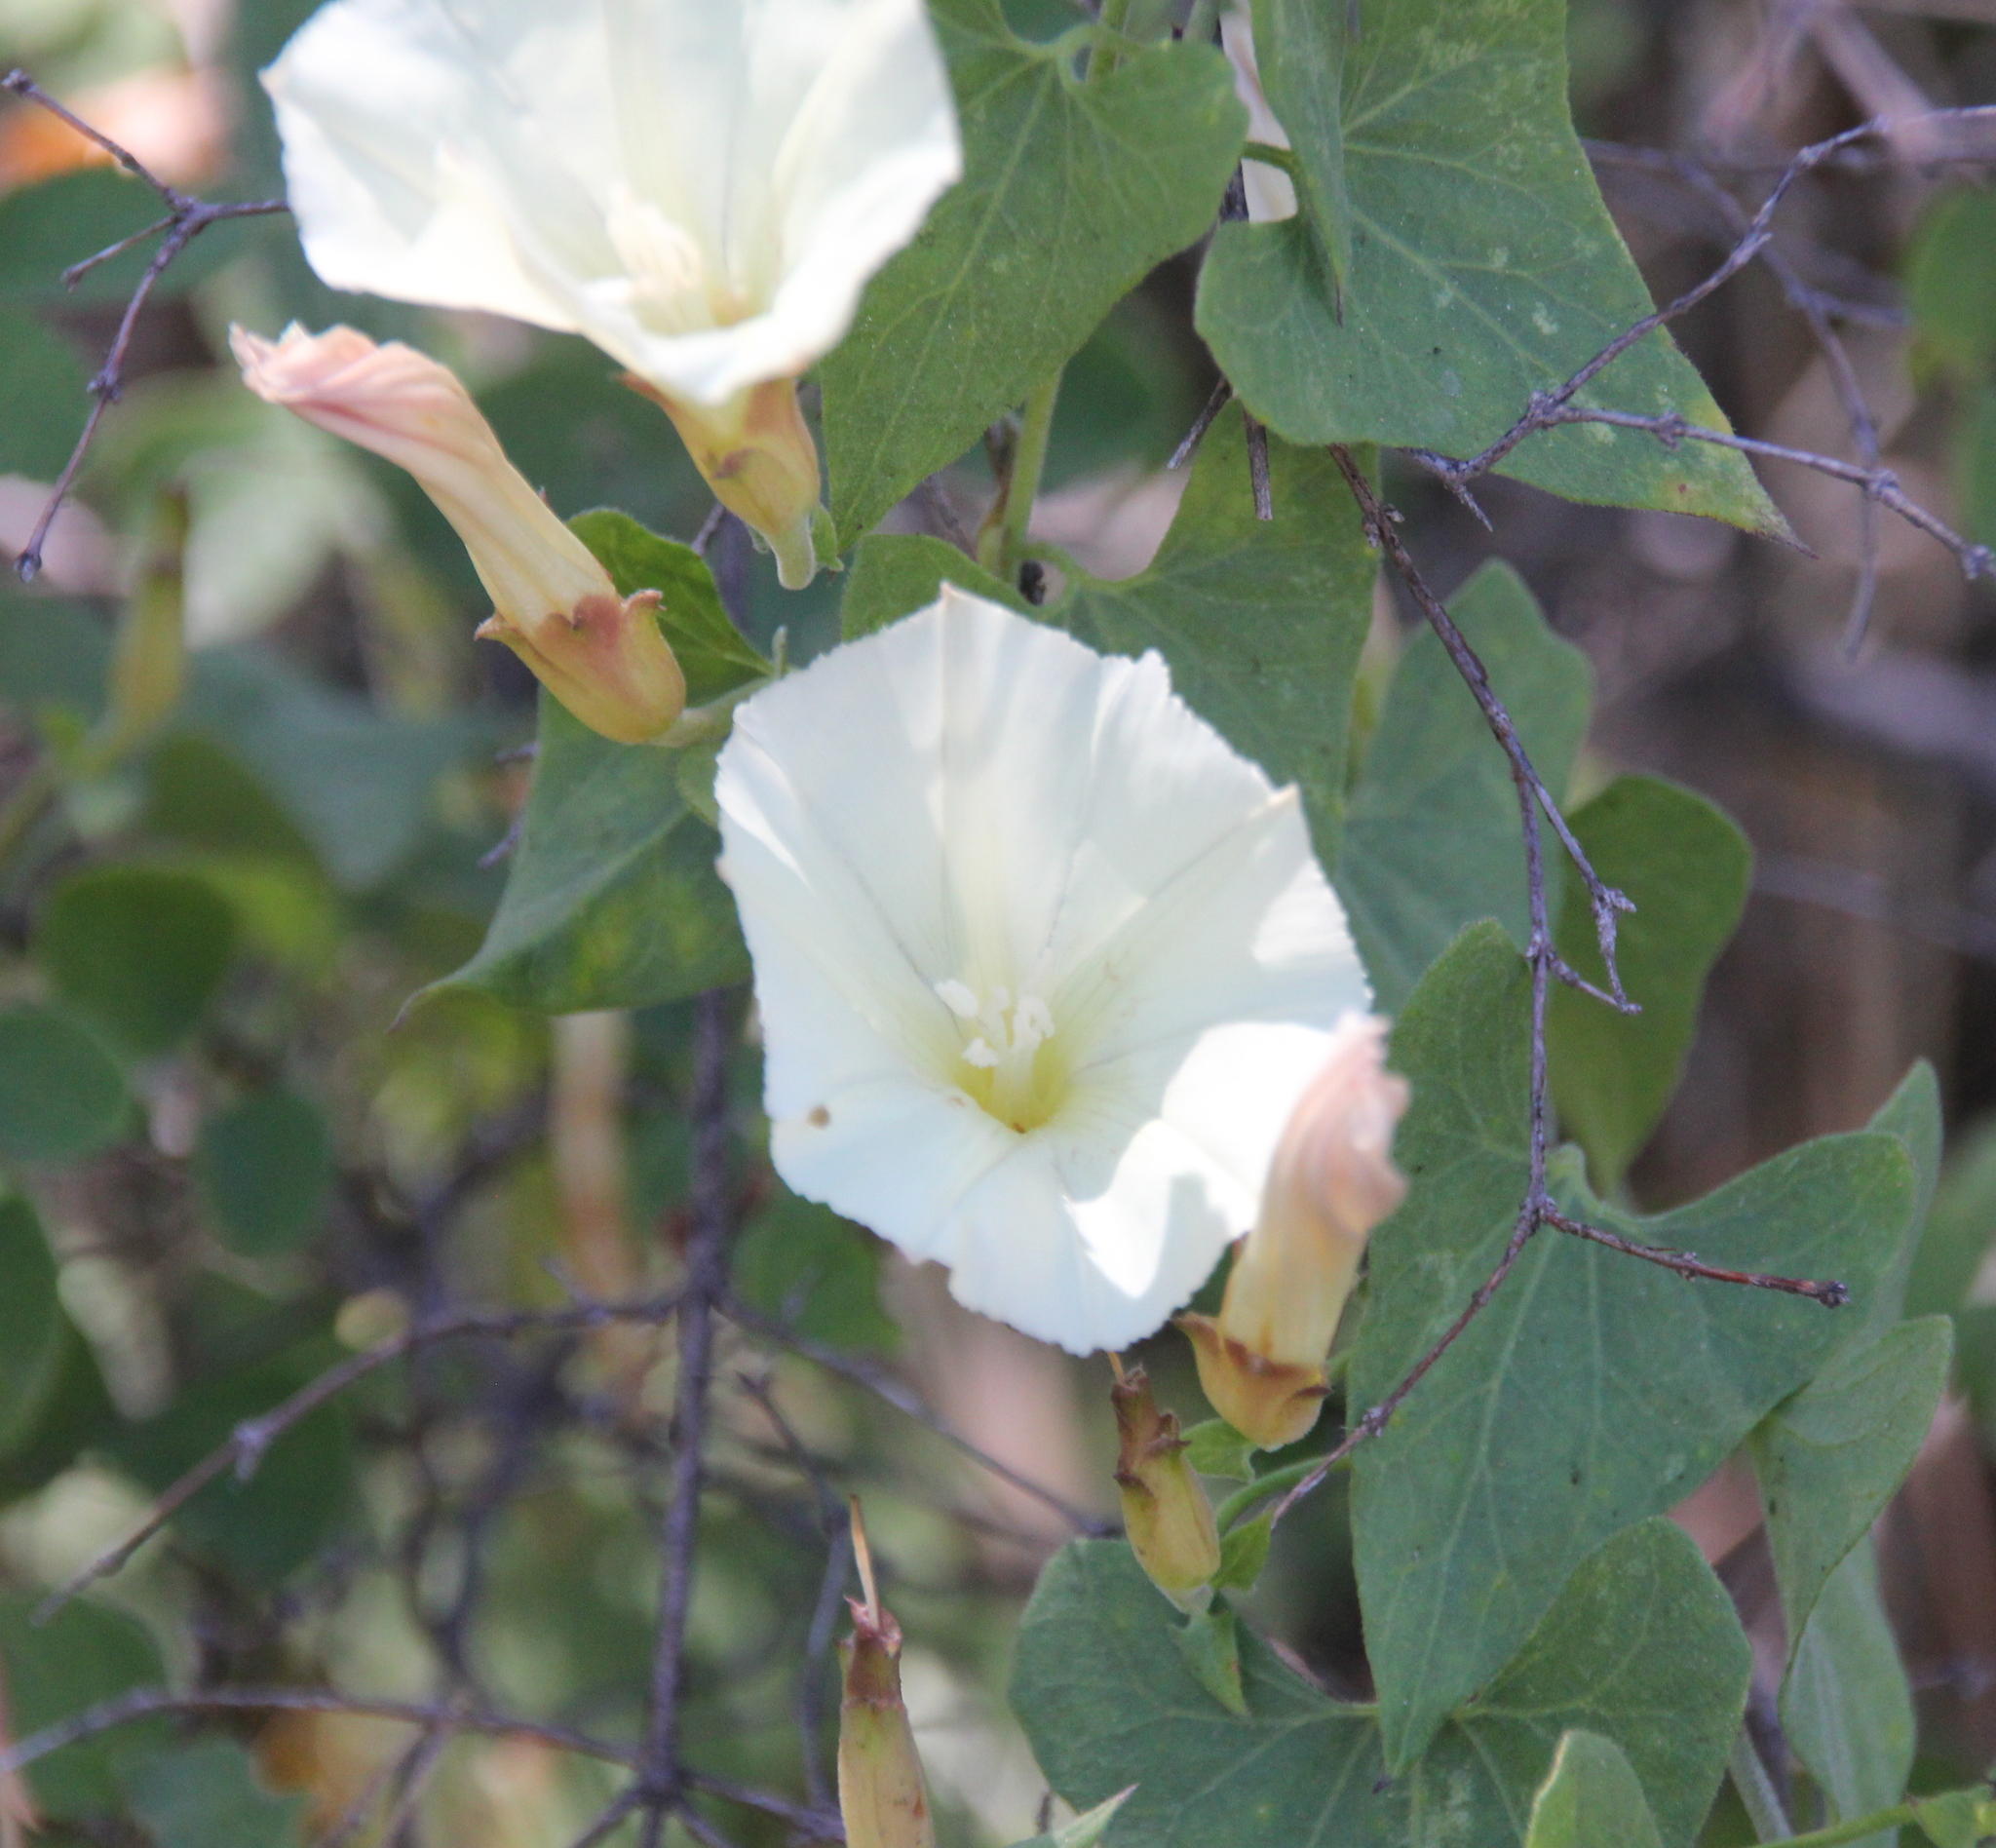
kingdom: Plantae
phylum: Tracheophyta
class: Magnoliopsida
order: Solanales
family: Convolvulaceae
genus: Calystegia
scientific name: Calystegia occidentalis
